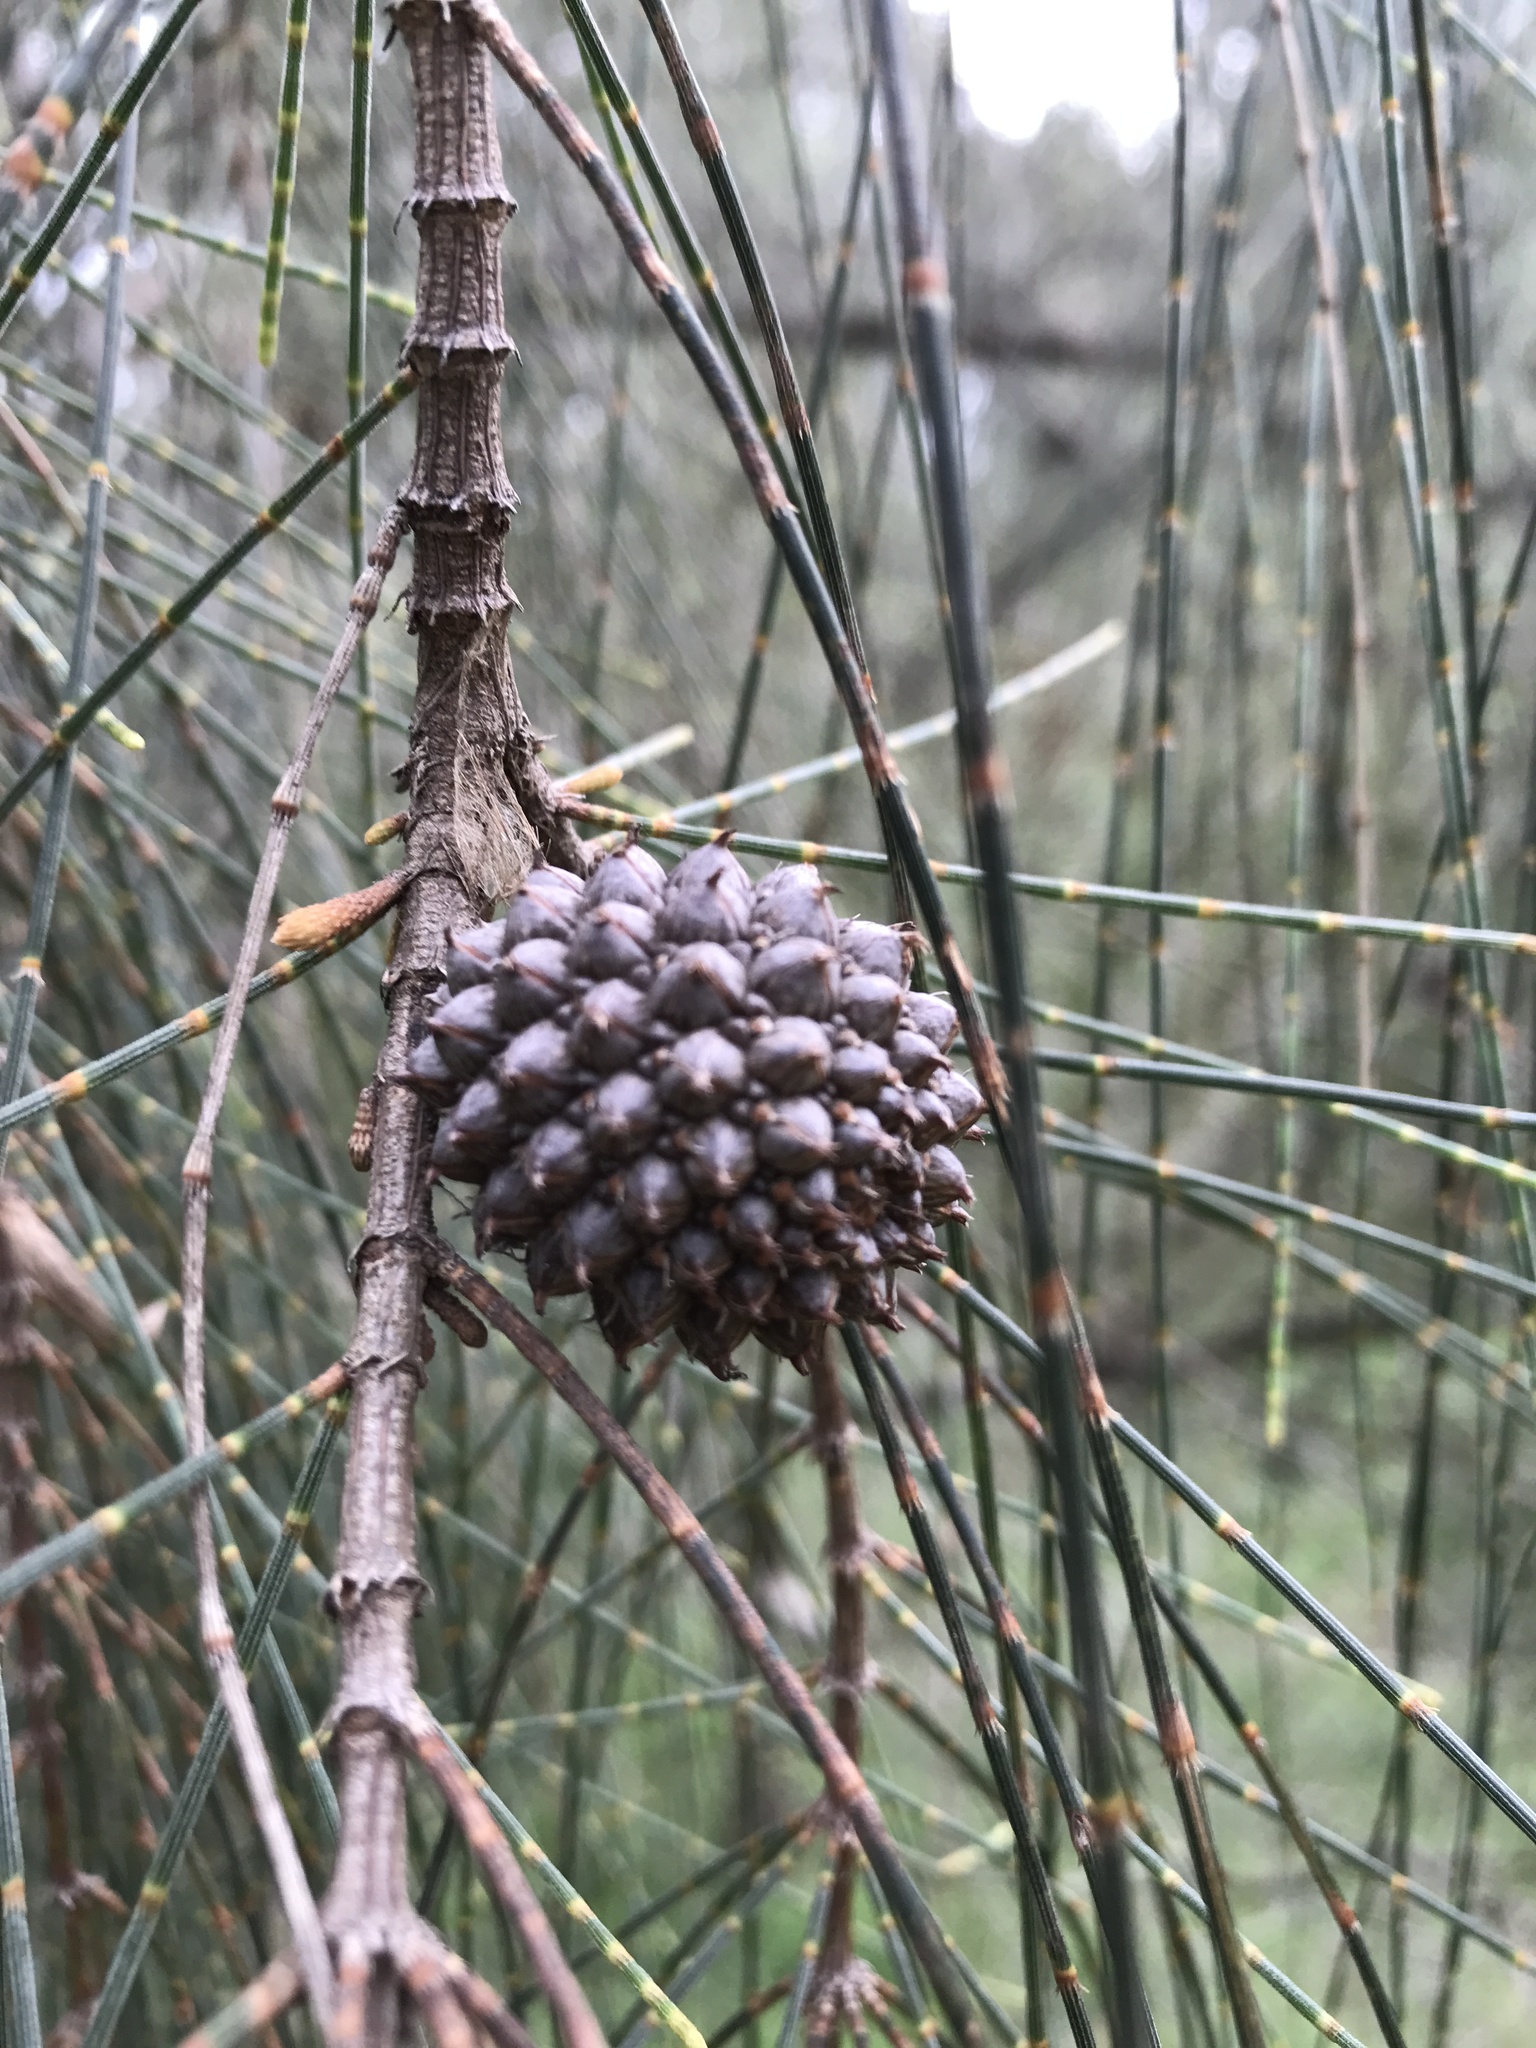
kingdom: Plantae
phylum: Tracheophyta
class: Magnoliopsida
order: Fagales
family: Casuarinaceae
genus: Allocasuarina
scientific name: Allocasuarina verticillata
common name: Drooping she-oak
